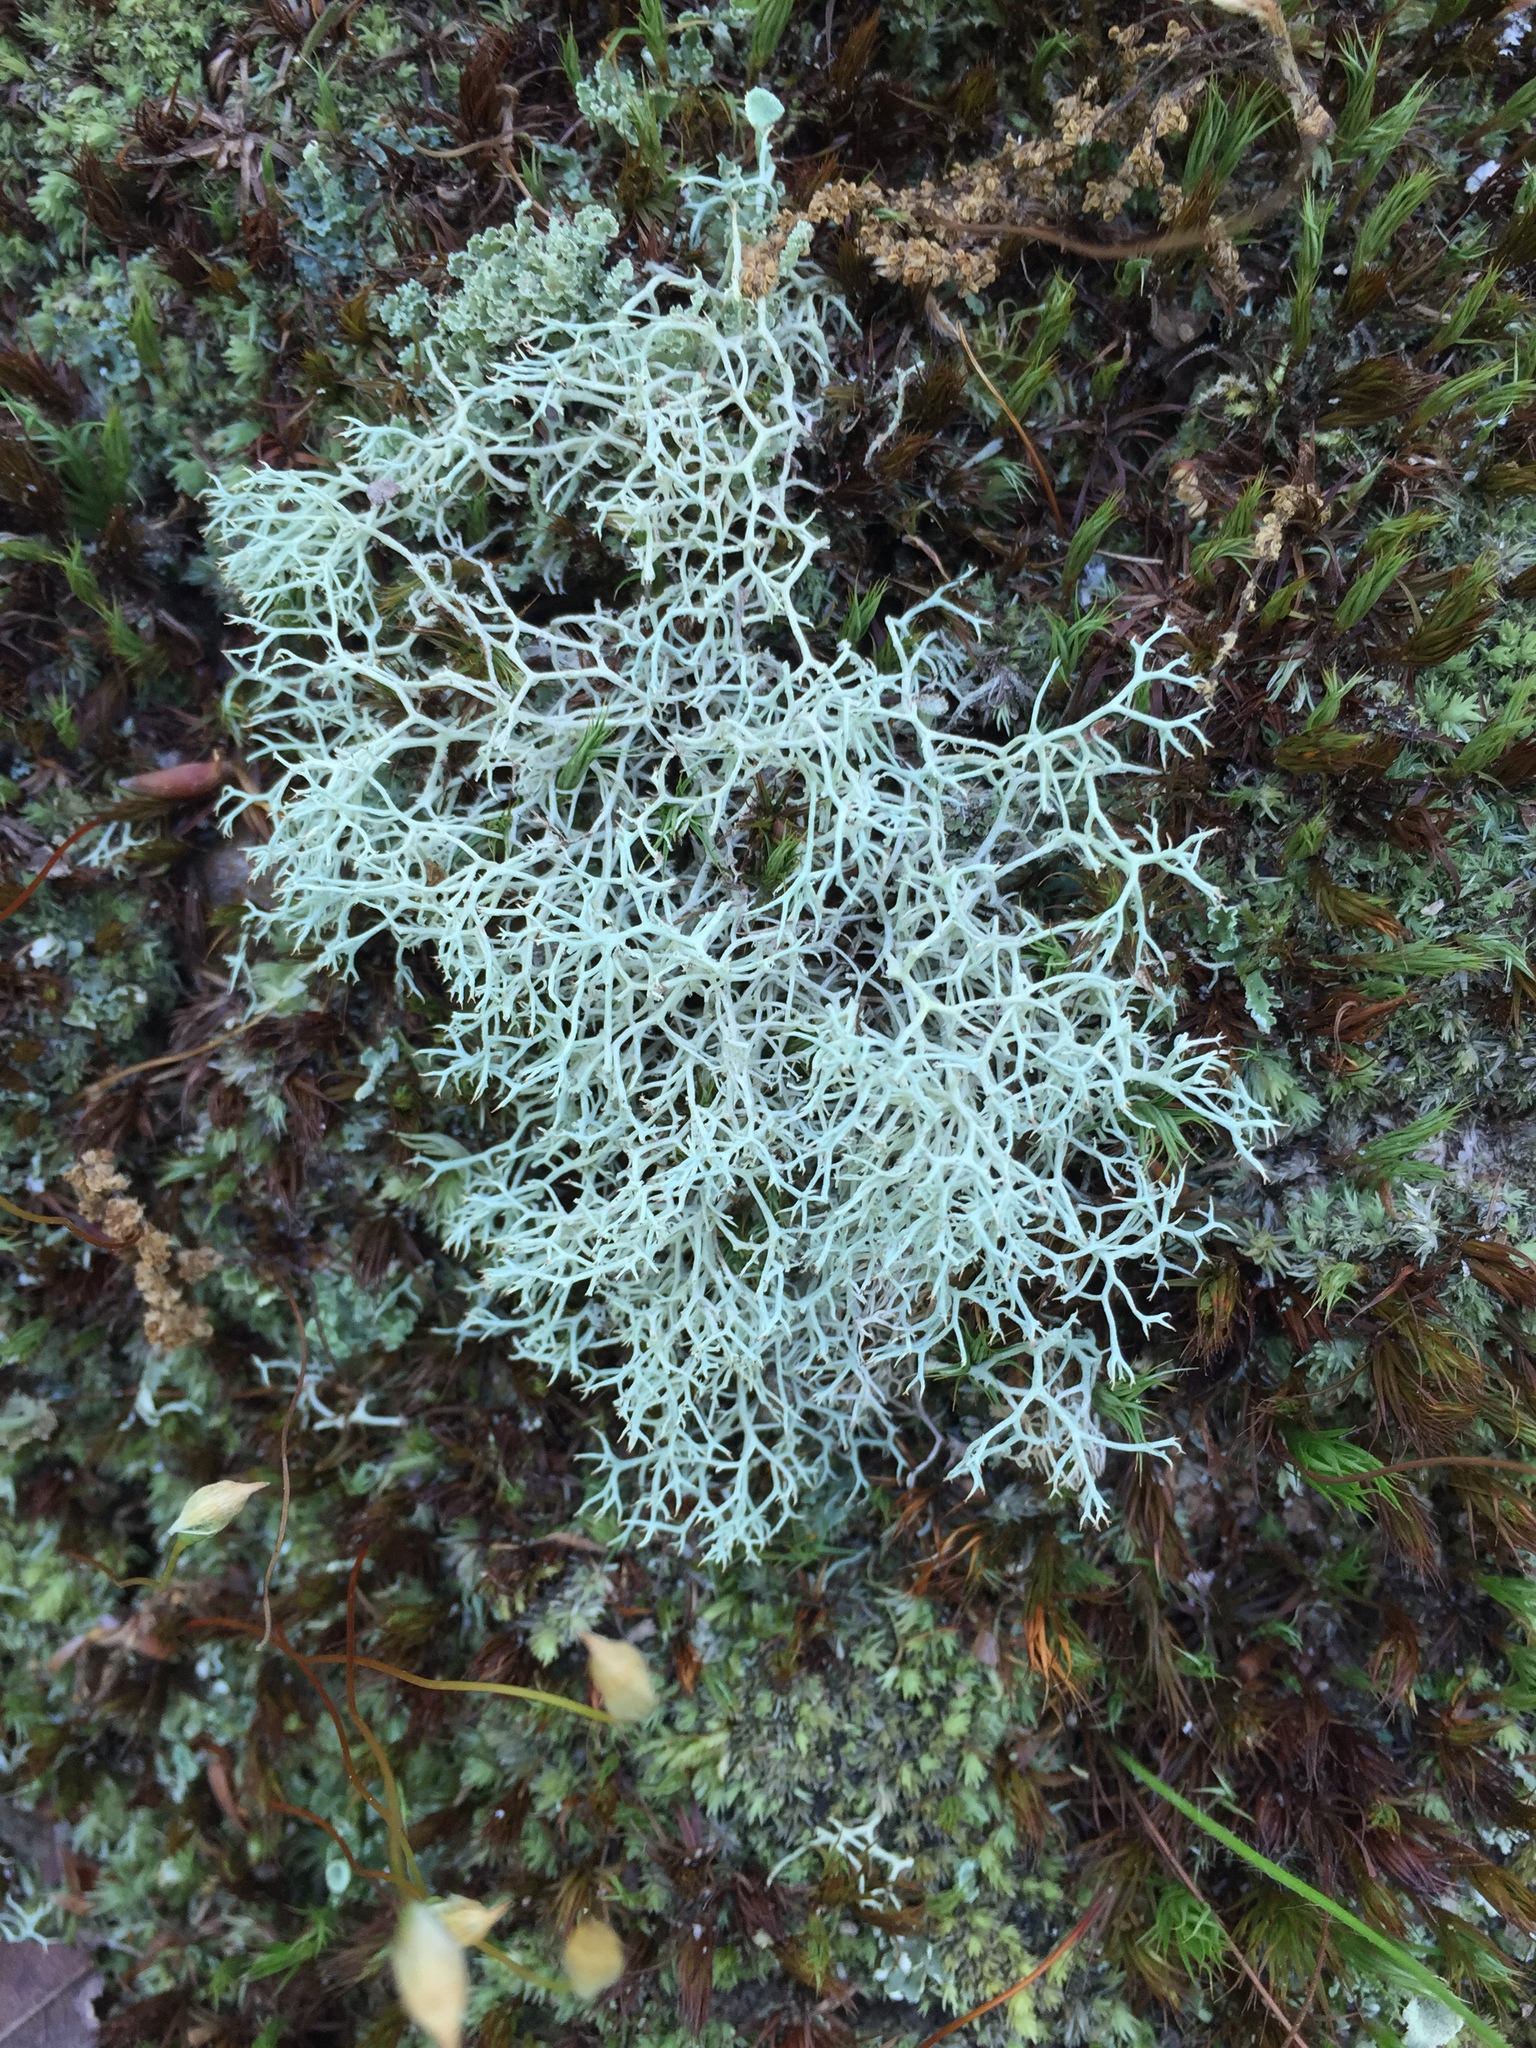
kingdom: Fungi
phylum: Ascomycota
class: Lecanoromycetes
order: Lecanorales
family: Cladoniaceae
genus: Cladonia
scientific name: Cladonia subtenuis
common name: Dixie reindeer lichen
